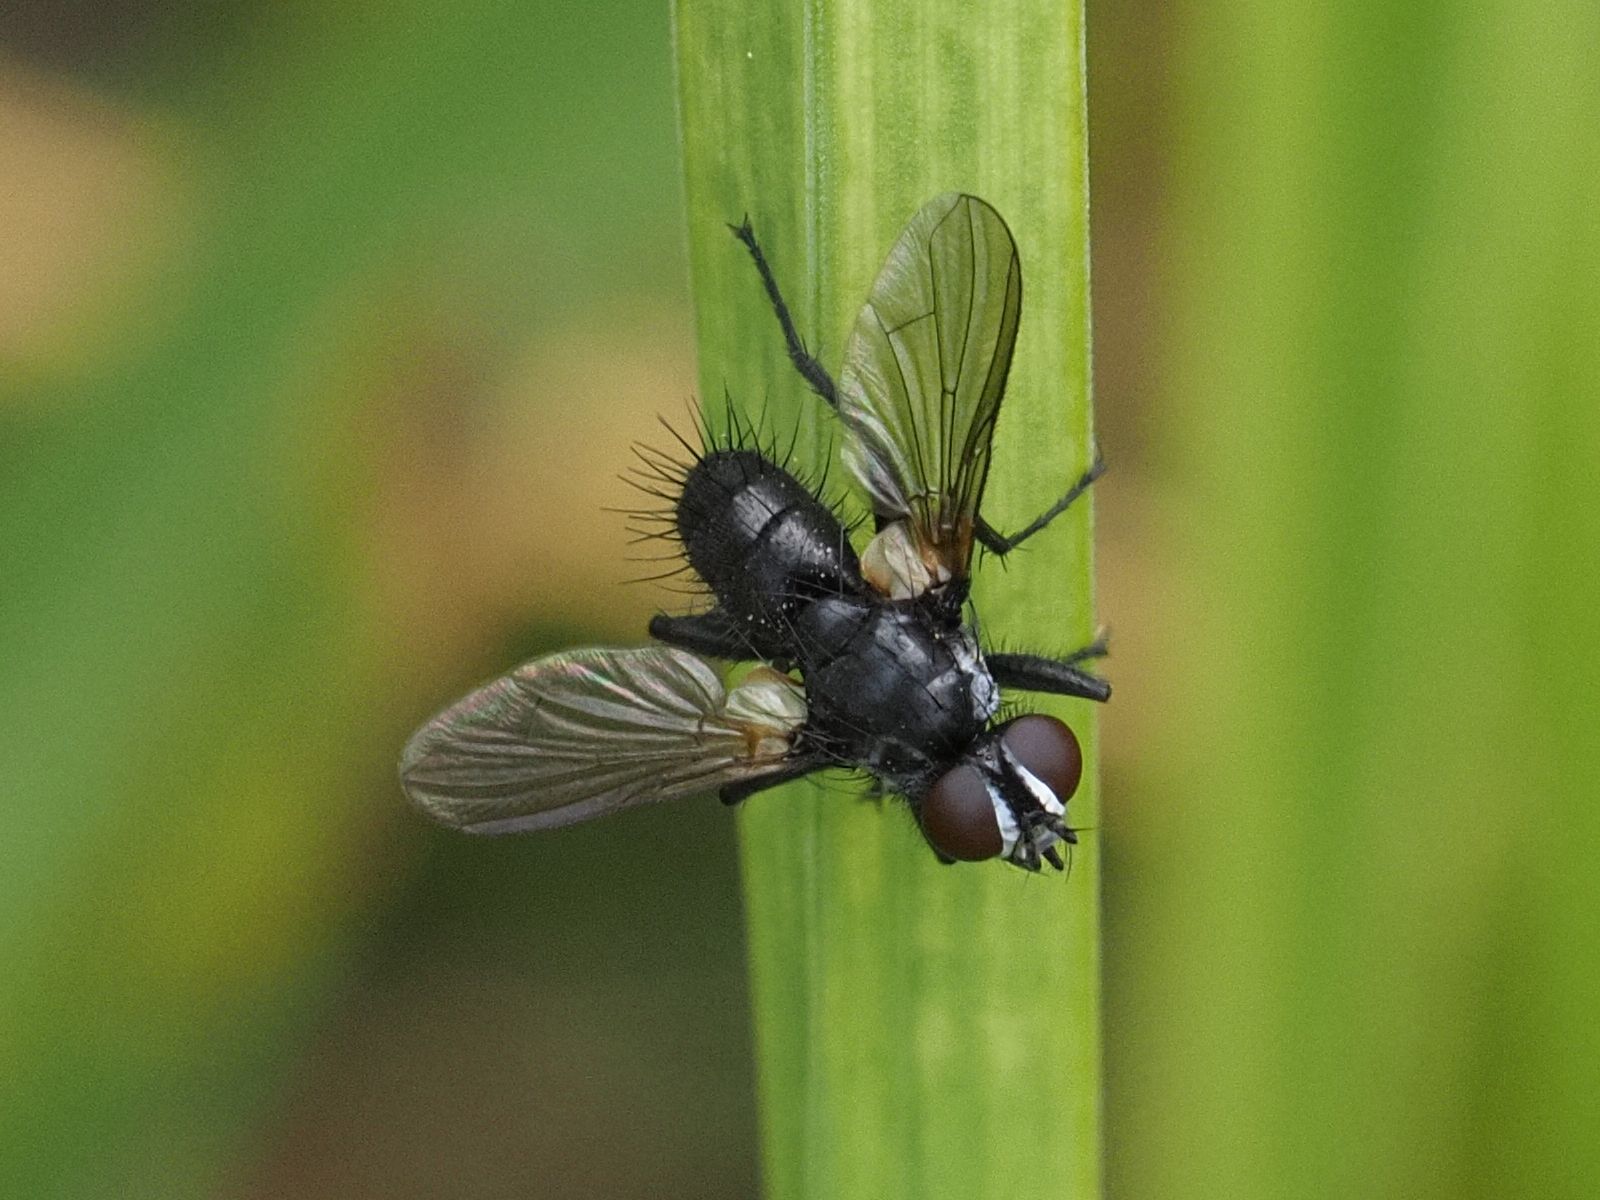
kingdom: Animalia
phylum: Arthropoda
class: Insecta
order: Diptera
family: Tachinidae
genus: Phania
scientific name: Phania funesta
